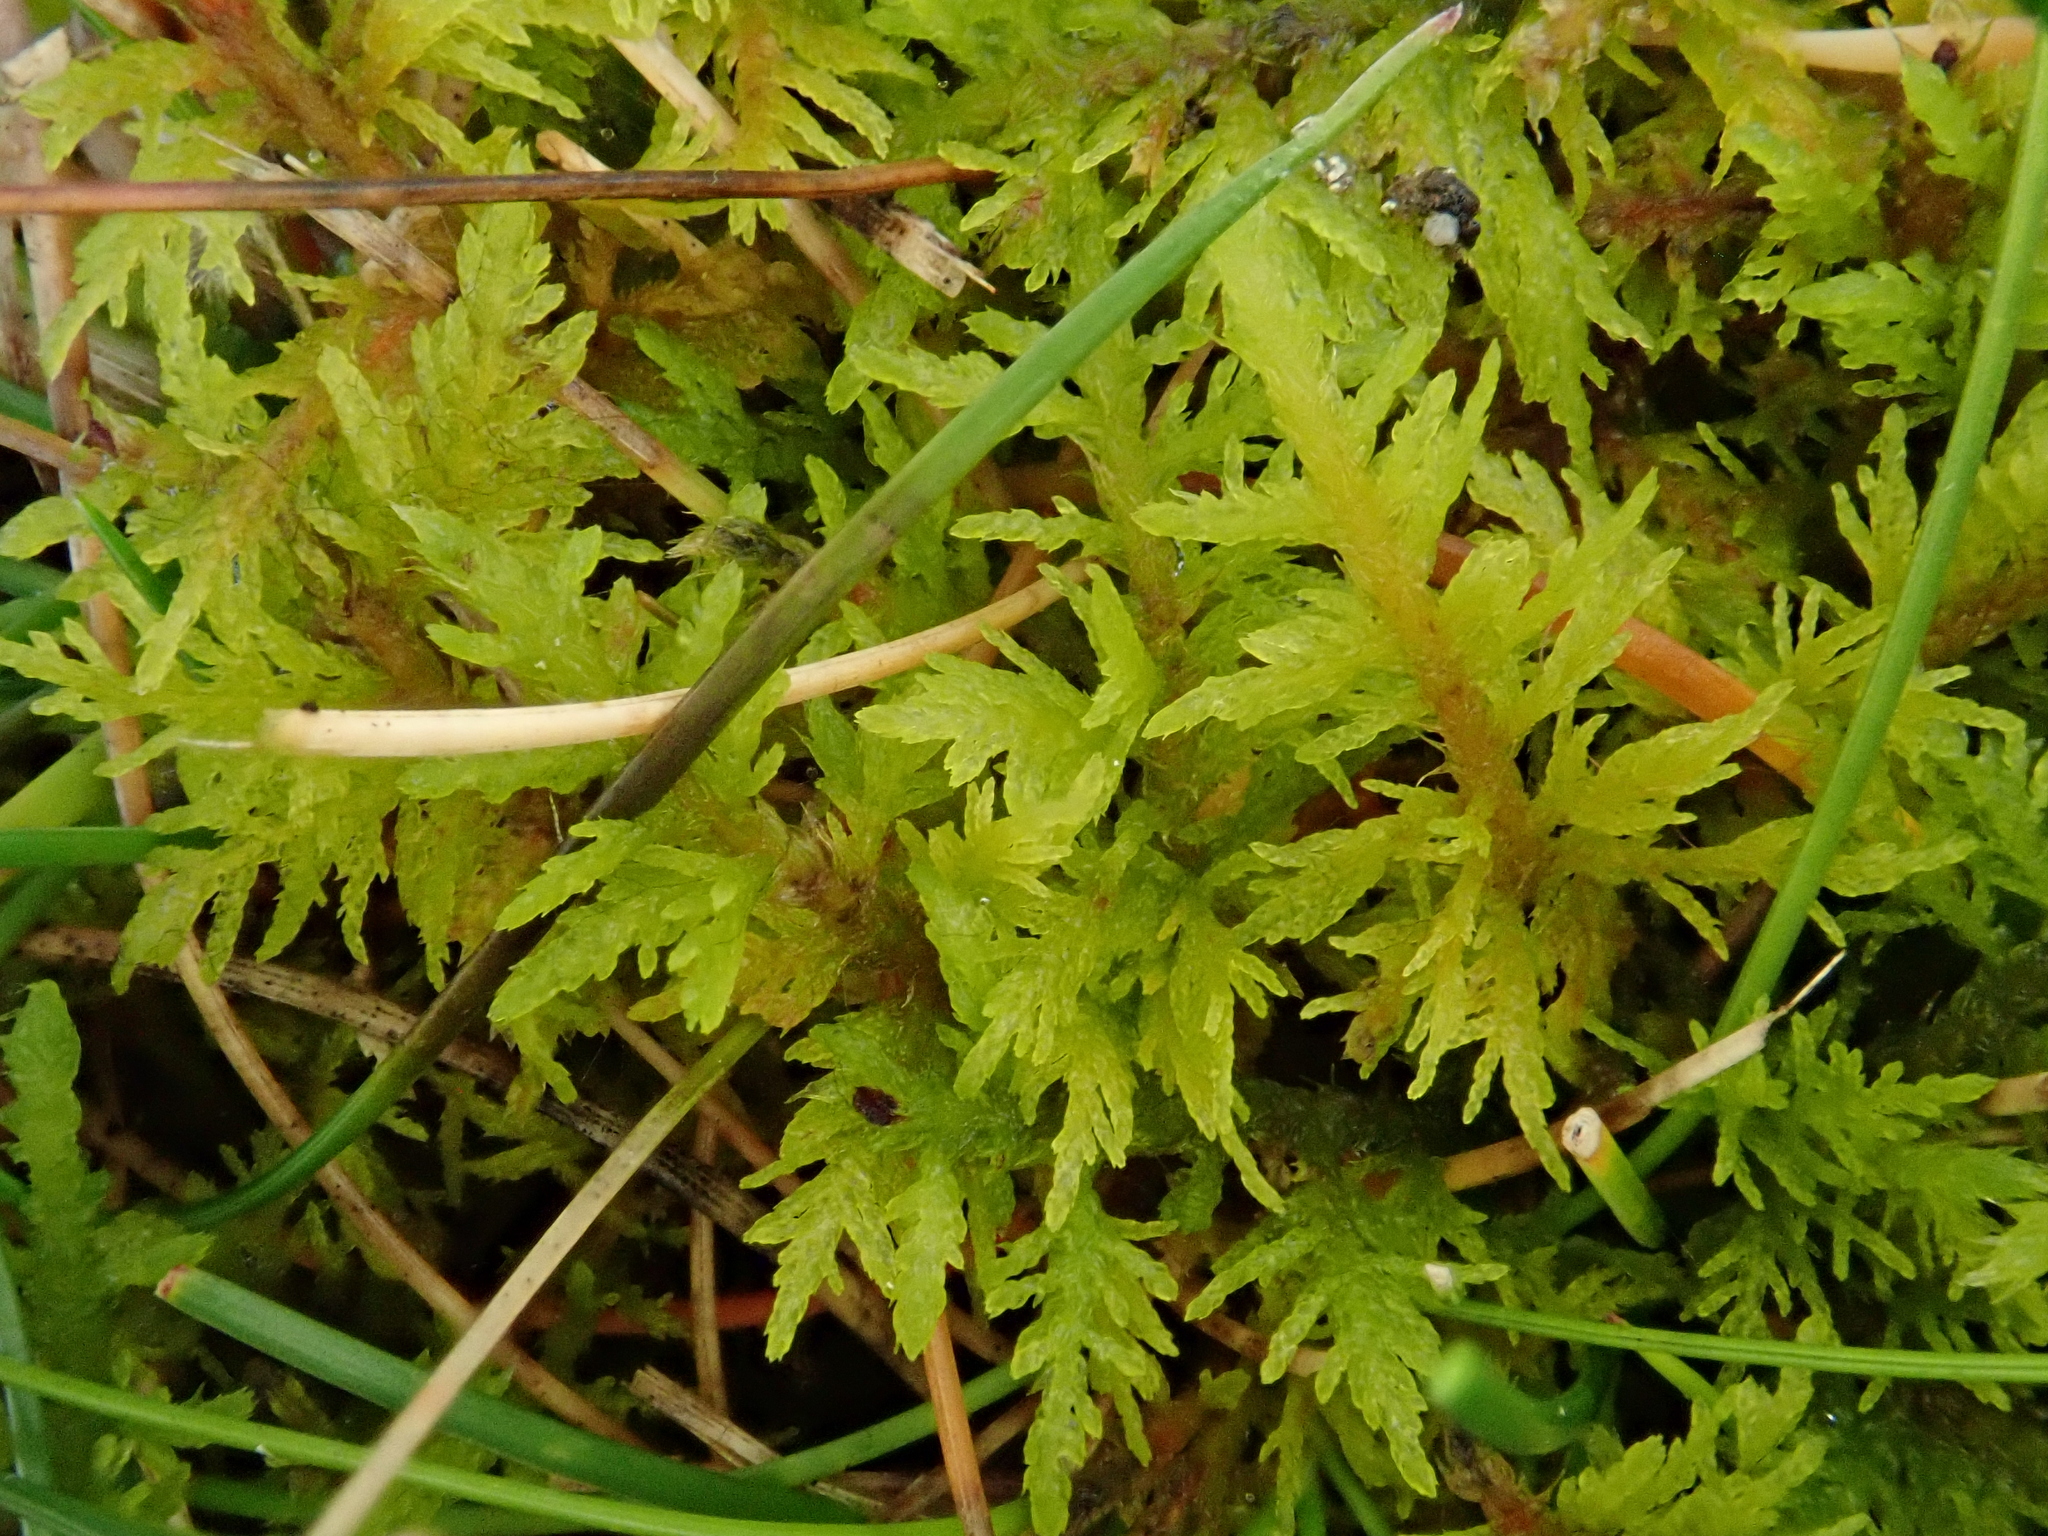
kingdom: Plantae
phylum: Bryophyta
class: Bryopsida
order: Hypnales
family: Thuidiaceae
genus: Thuidium
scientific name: Thuidium assimile
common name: Philibert's fern moss
